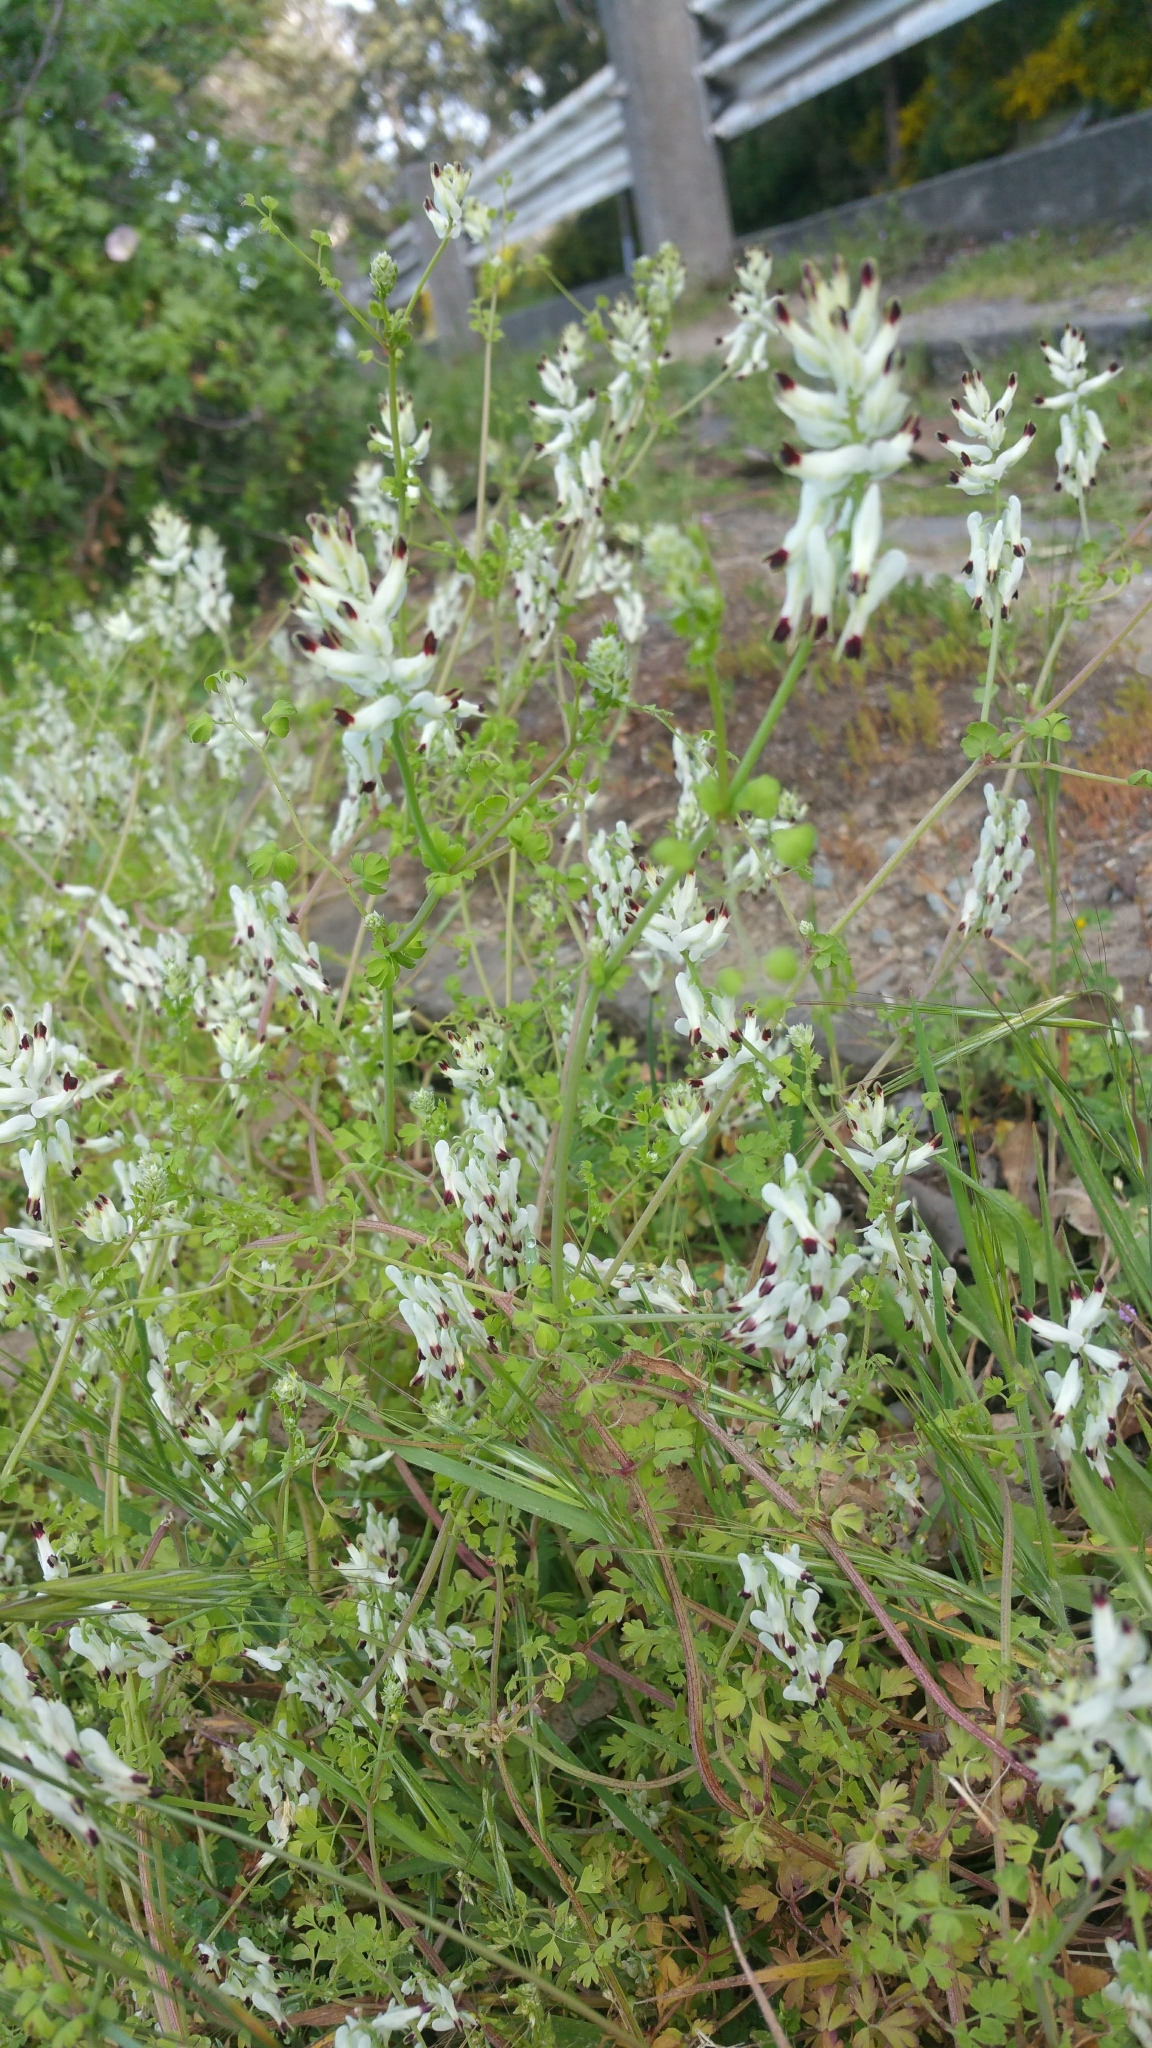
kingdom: Plantae
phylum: Tracheophyta
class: Magnoliopsida
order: Ranunculales
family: Papaveraceae
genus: Fumaria
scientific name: Fumaria capreolata
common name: White ramping-fumitory
